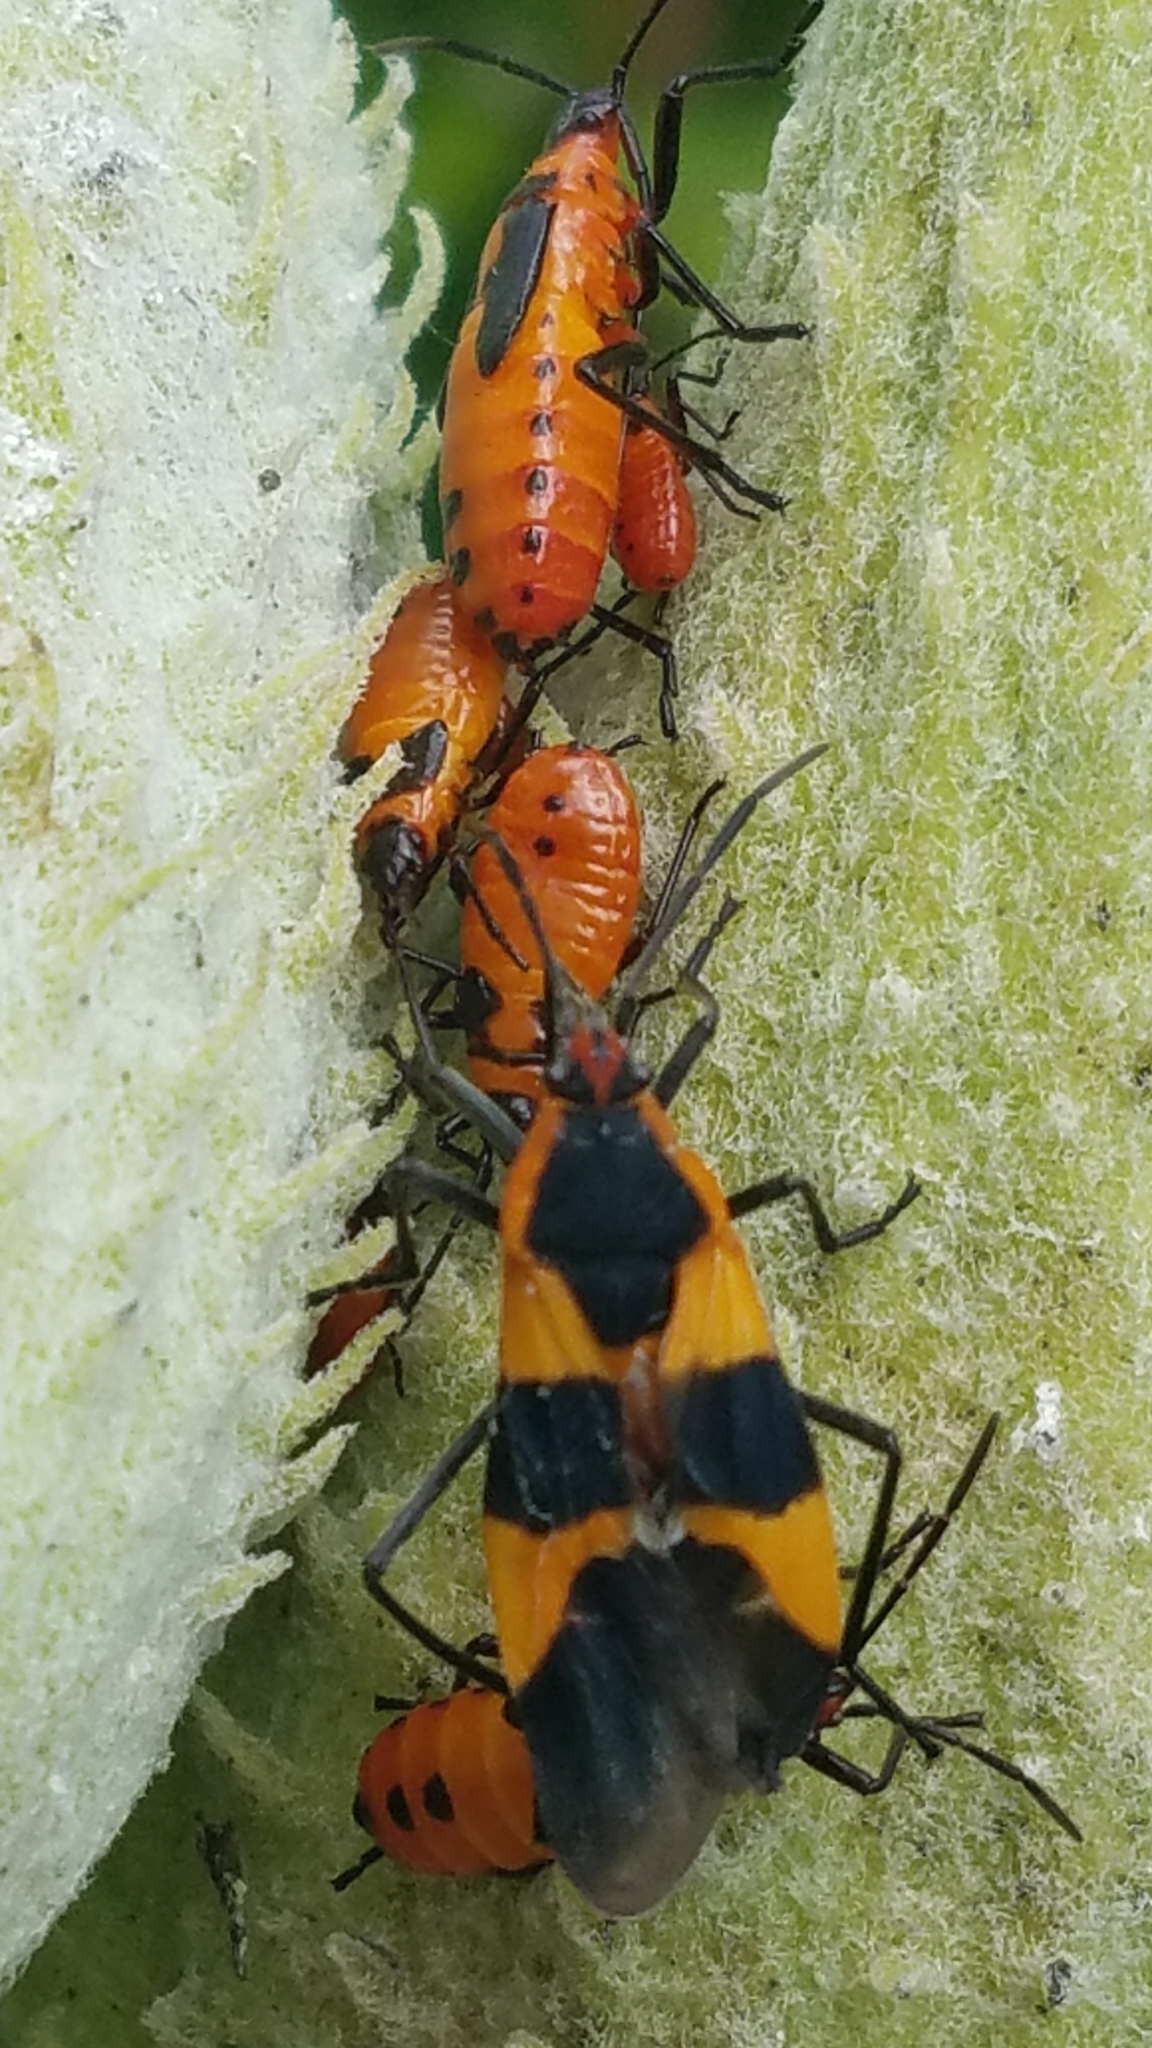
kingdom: Animalia
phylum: Arthropoda
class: Insecta
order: Hemiptera
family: Lygaeidae
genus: Oncopeltus
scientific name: Oncopeltus fasciatus
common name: Large milkweed bug
